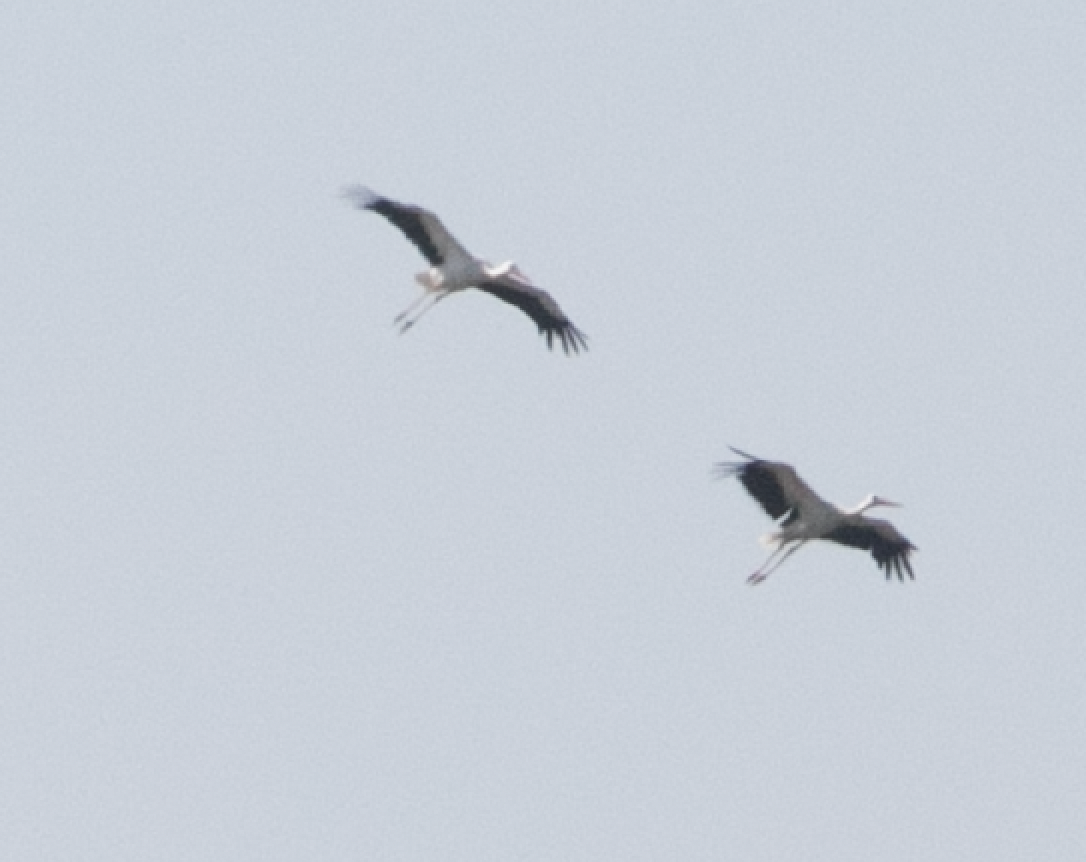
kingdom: Animalia
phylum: Chordata
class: Aves
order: Ciconiiformes
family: Ciconiidae
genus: Ciconia
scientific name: Ciconia ciconia
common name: White stork
